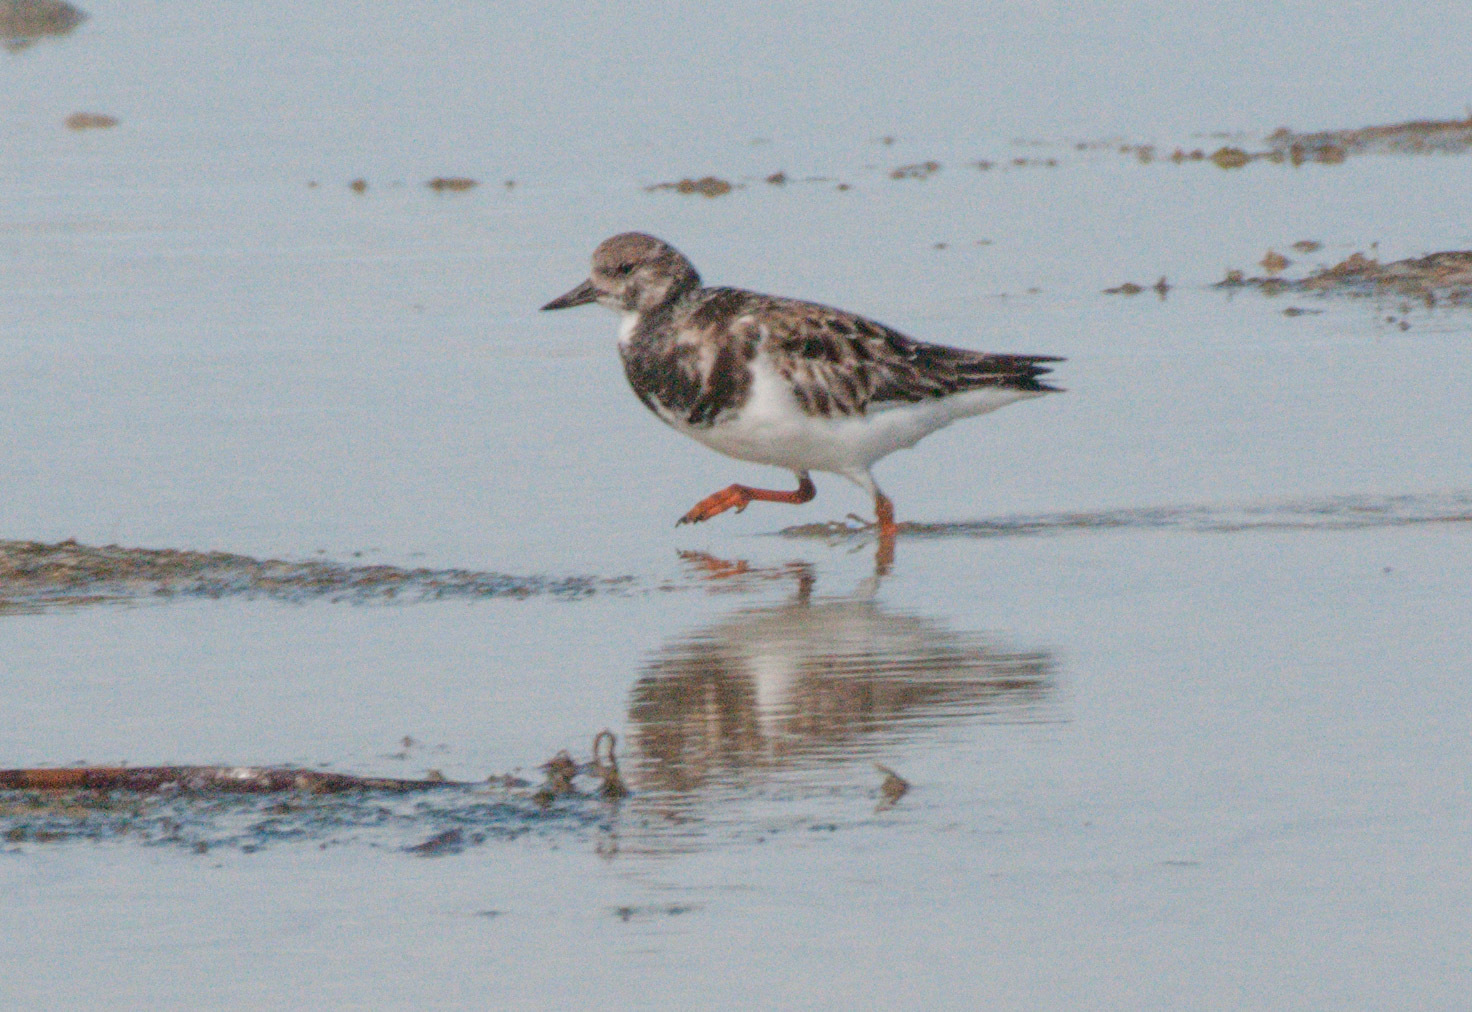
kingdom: Animalia
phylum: Chordata
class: Aves
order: Charadriiformes
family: Scolopacidae
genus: Arenaria
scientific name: Arenaria interpres
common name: Ruddy turnstone
